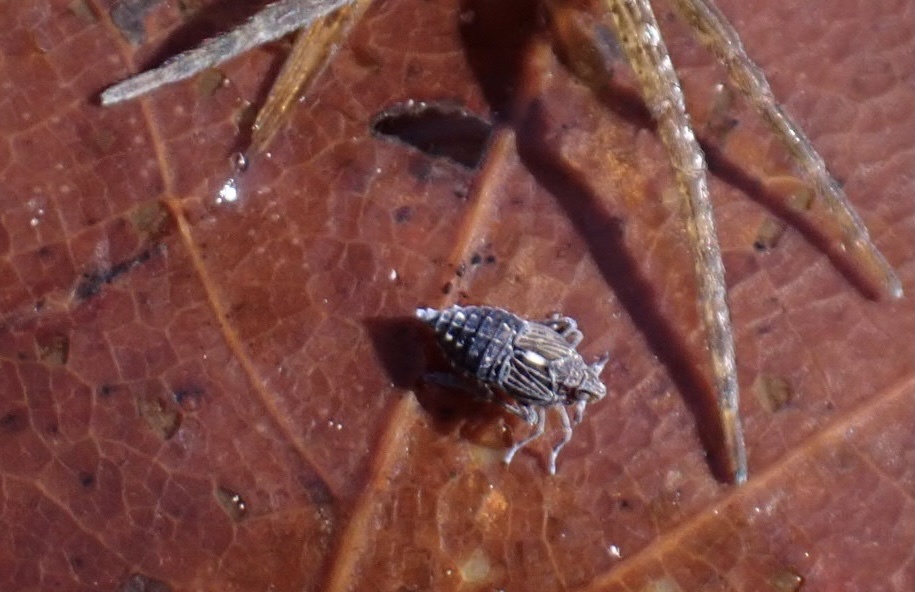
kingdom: Animalia
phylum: Arthropoda
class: Insecta
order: Hemiptera
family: Delphacidae
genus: Megamelus
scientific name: Megamelus davisi
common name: Planthopper
